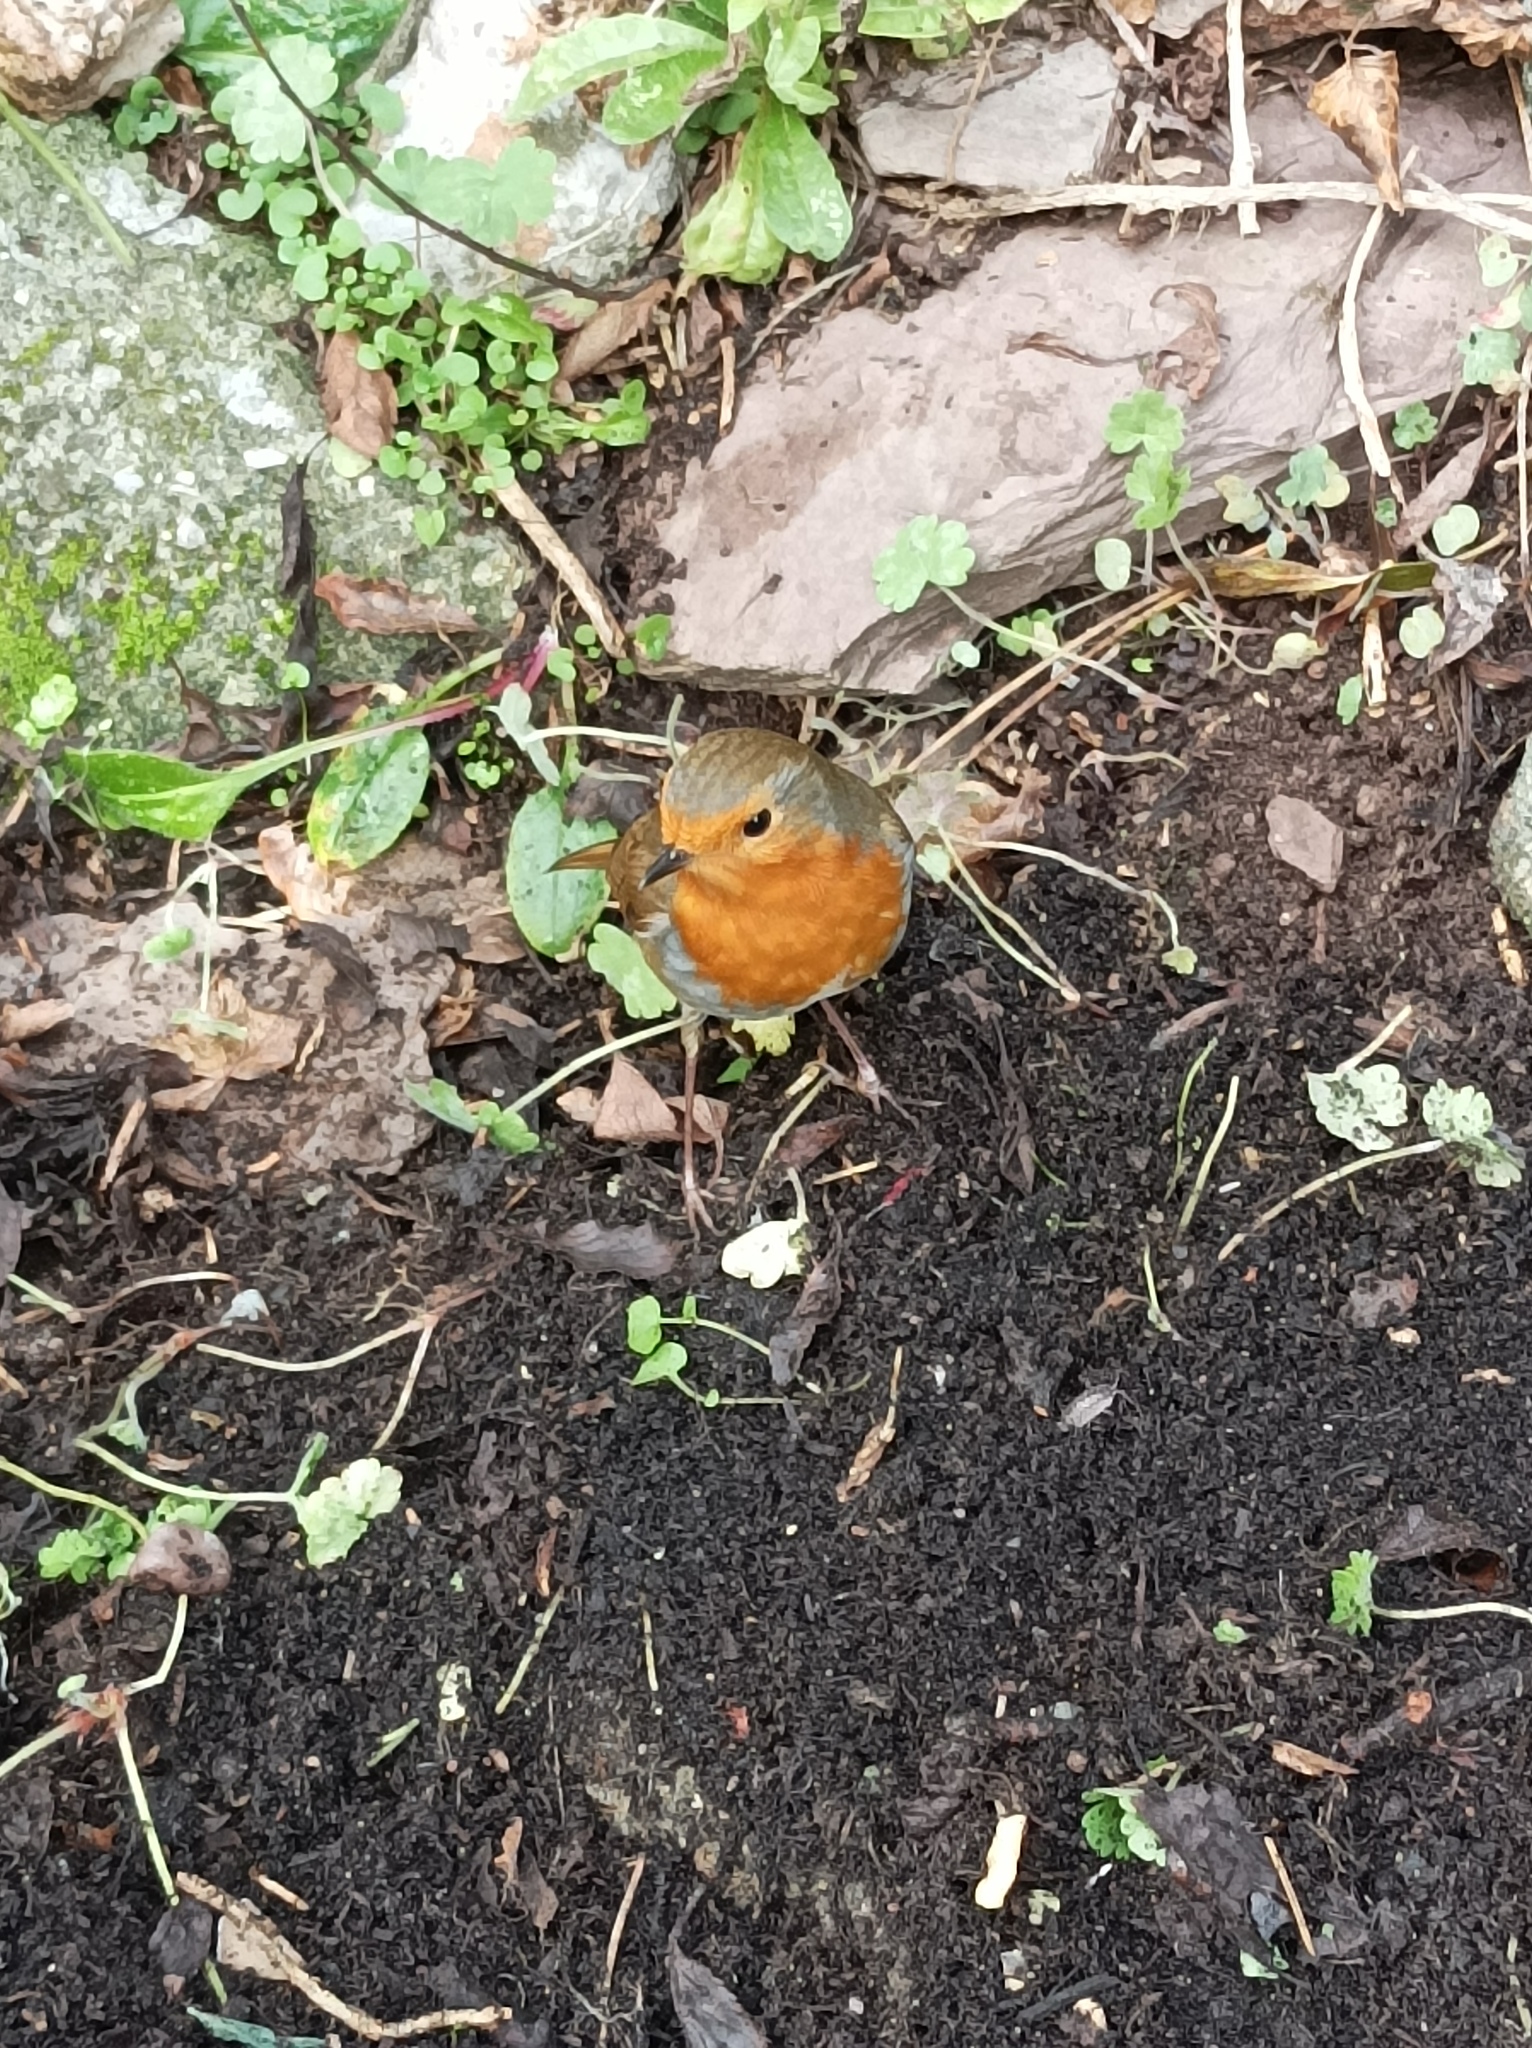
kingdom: Animalia
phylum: Chordata
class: Aves
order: Passeriformes
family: Muscicapidae
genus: Erithacus
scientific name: Erithacus rubecula
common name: European robin
